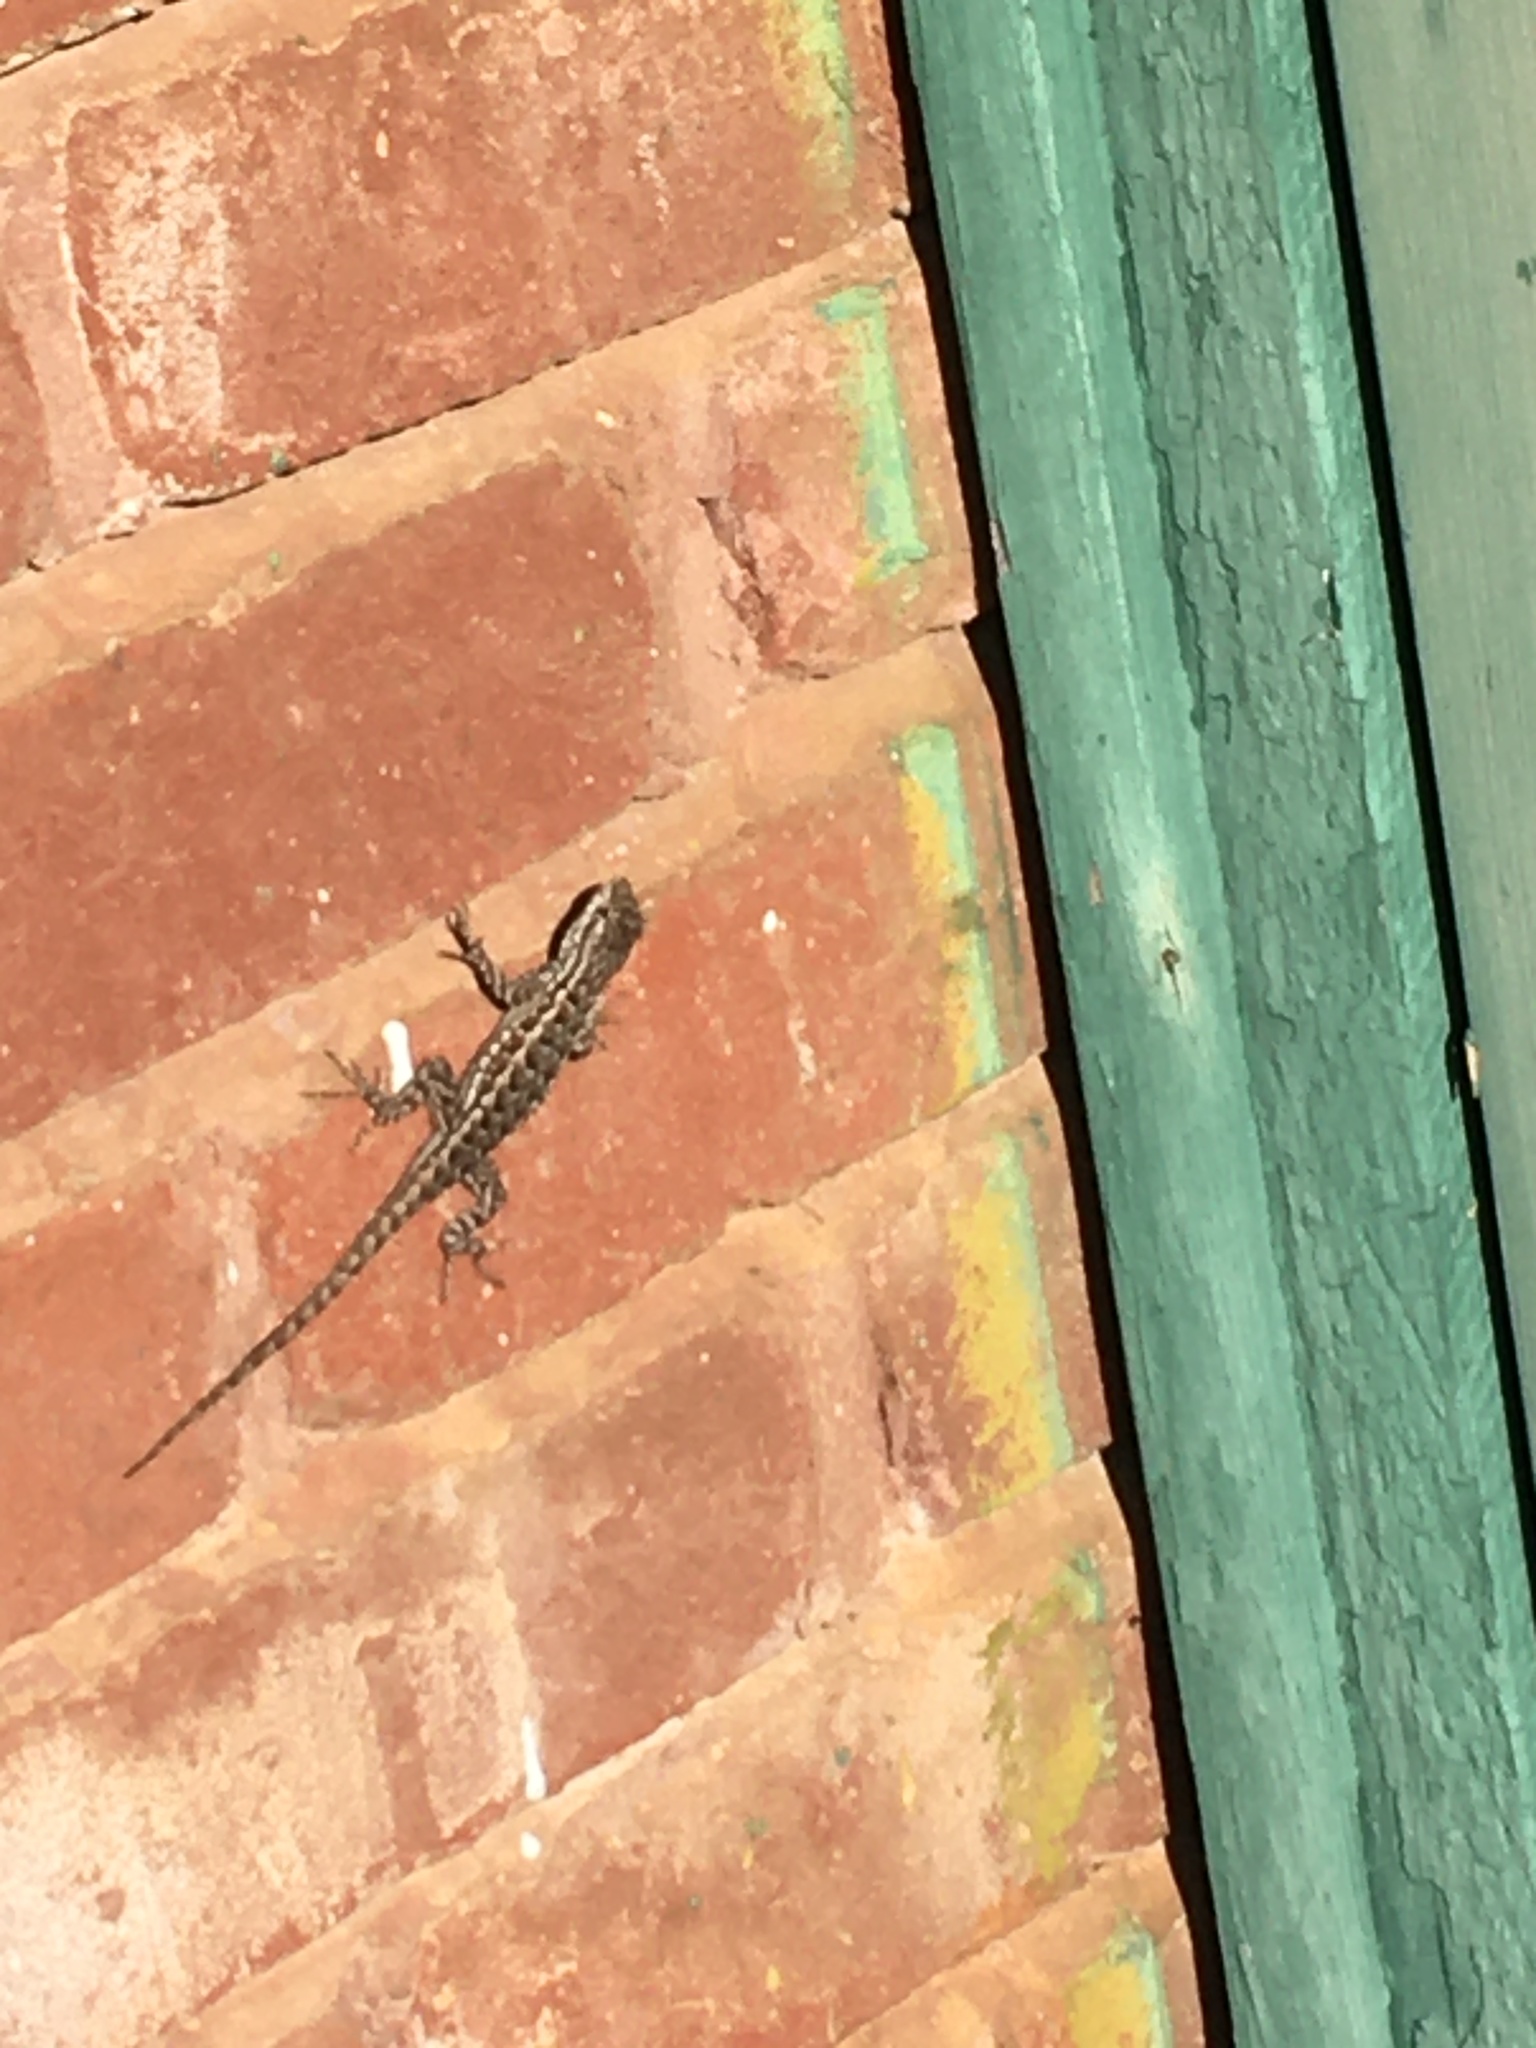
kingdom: Animalia
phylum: Chordata
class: Squamata
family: Phrynosomatidae
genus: Sceloporus
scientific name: Sceloporus occidentalis
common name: Western fence lizard
